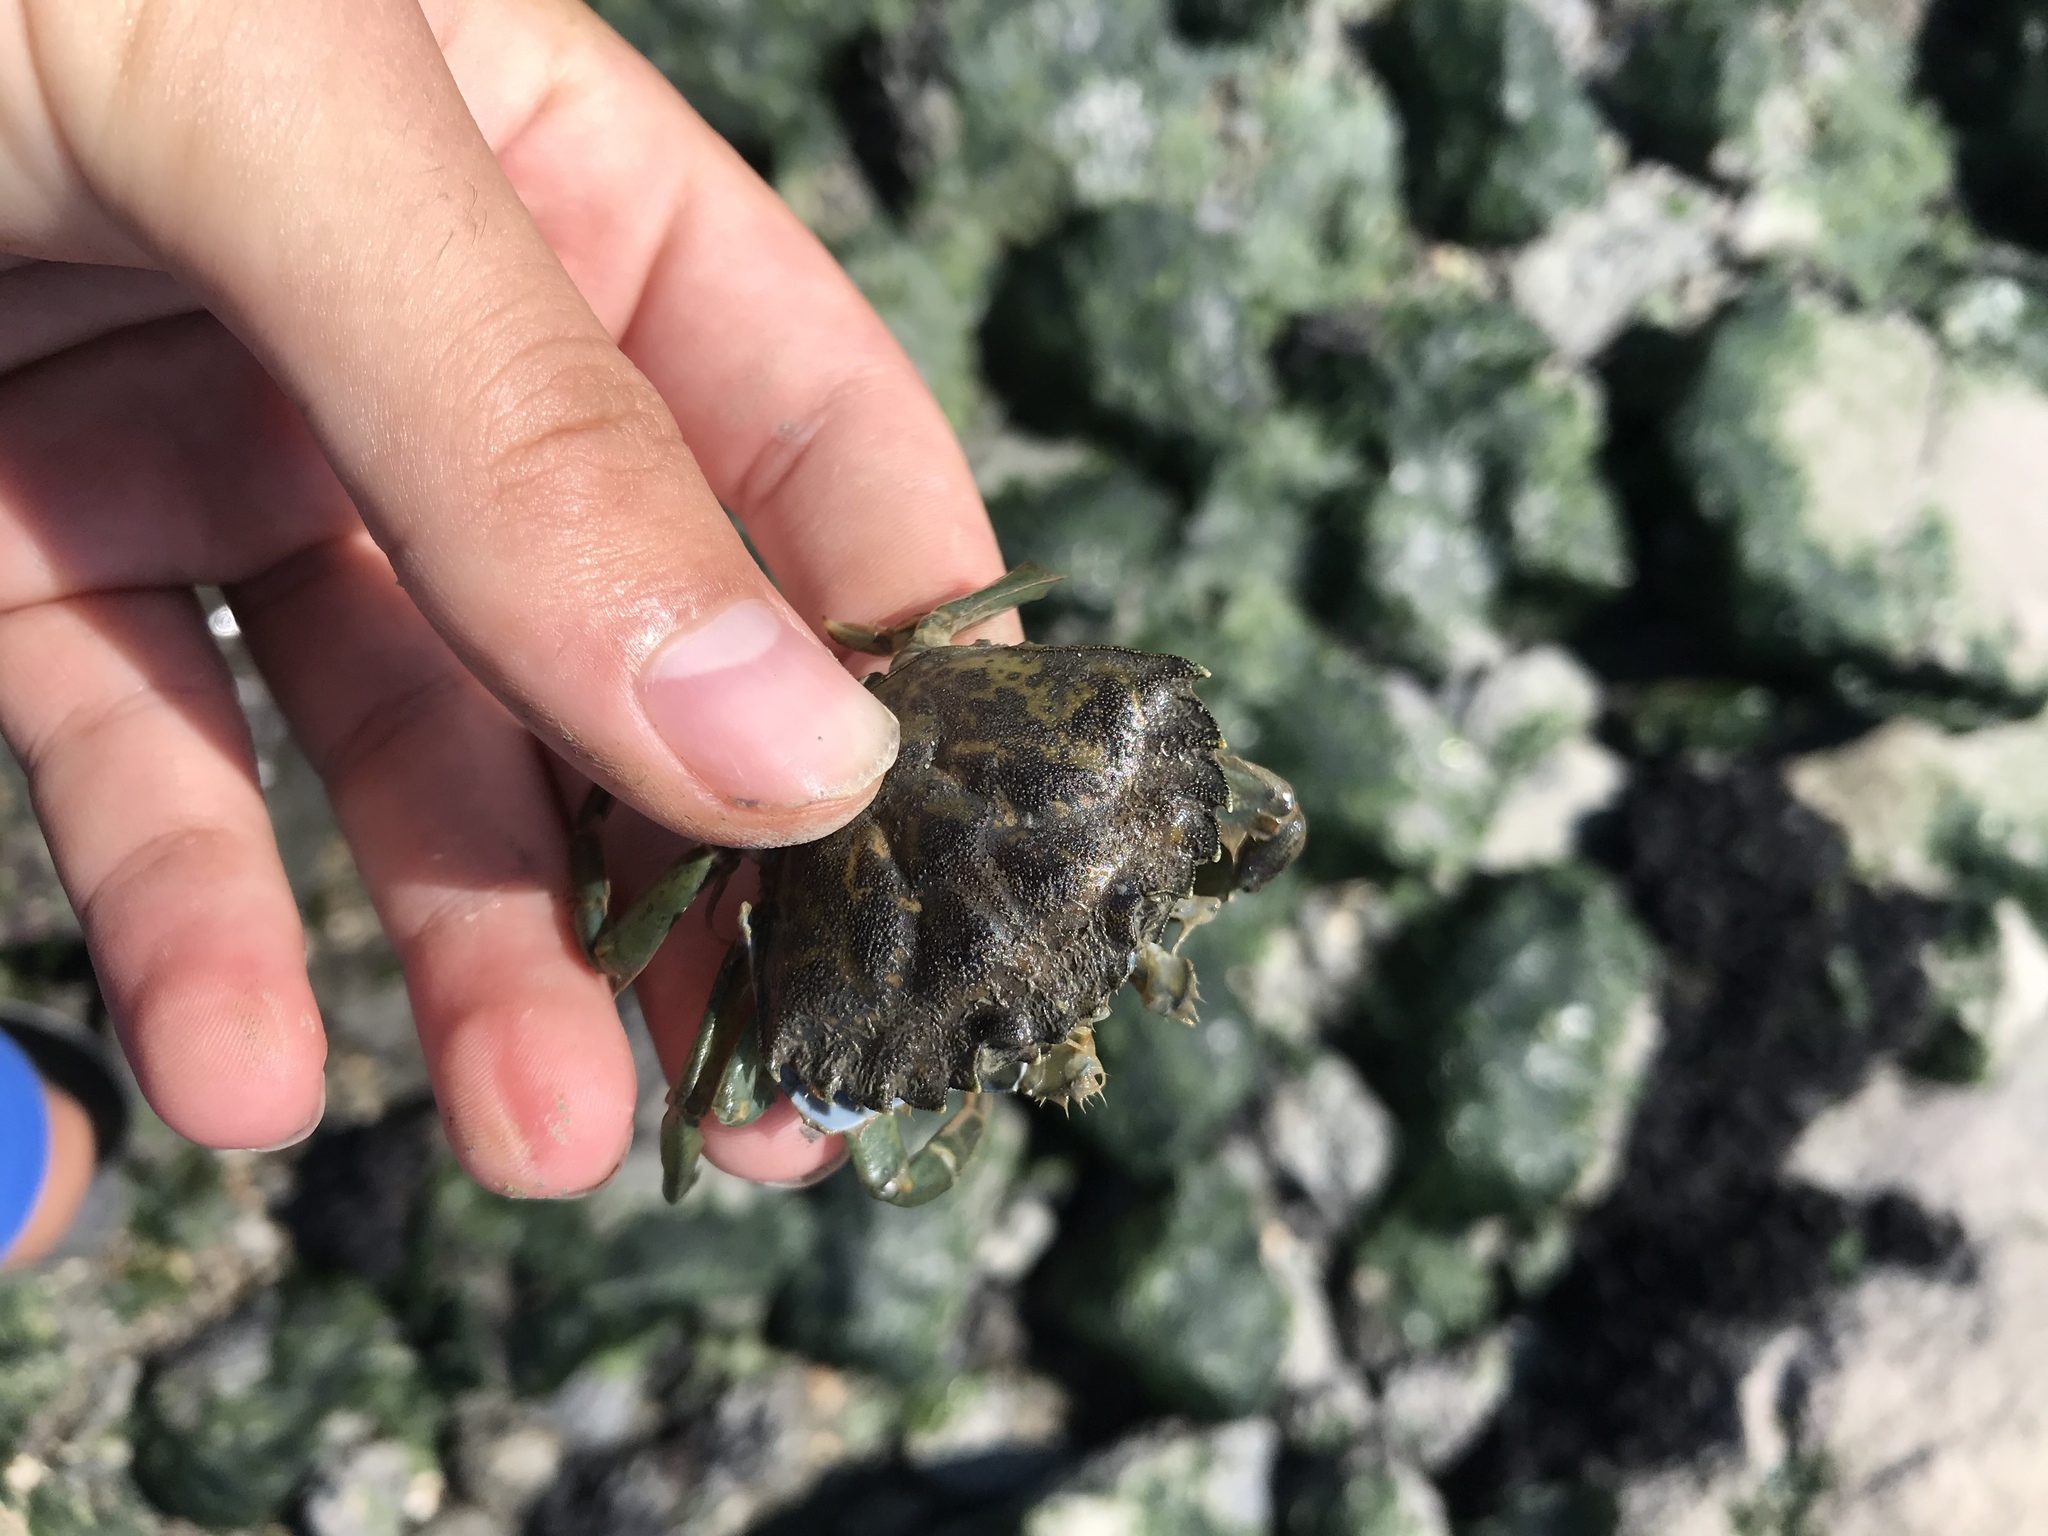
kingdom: Animalia
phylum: Arthropoda
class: Malacostraca
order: Decapoda
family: Carcinidae
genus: Carcinus
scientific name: Carcinus maenas
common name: European green crab
